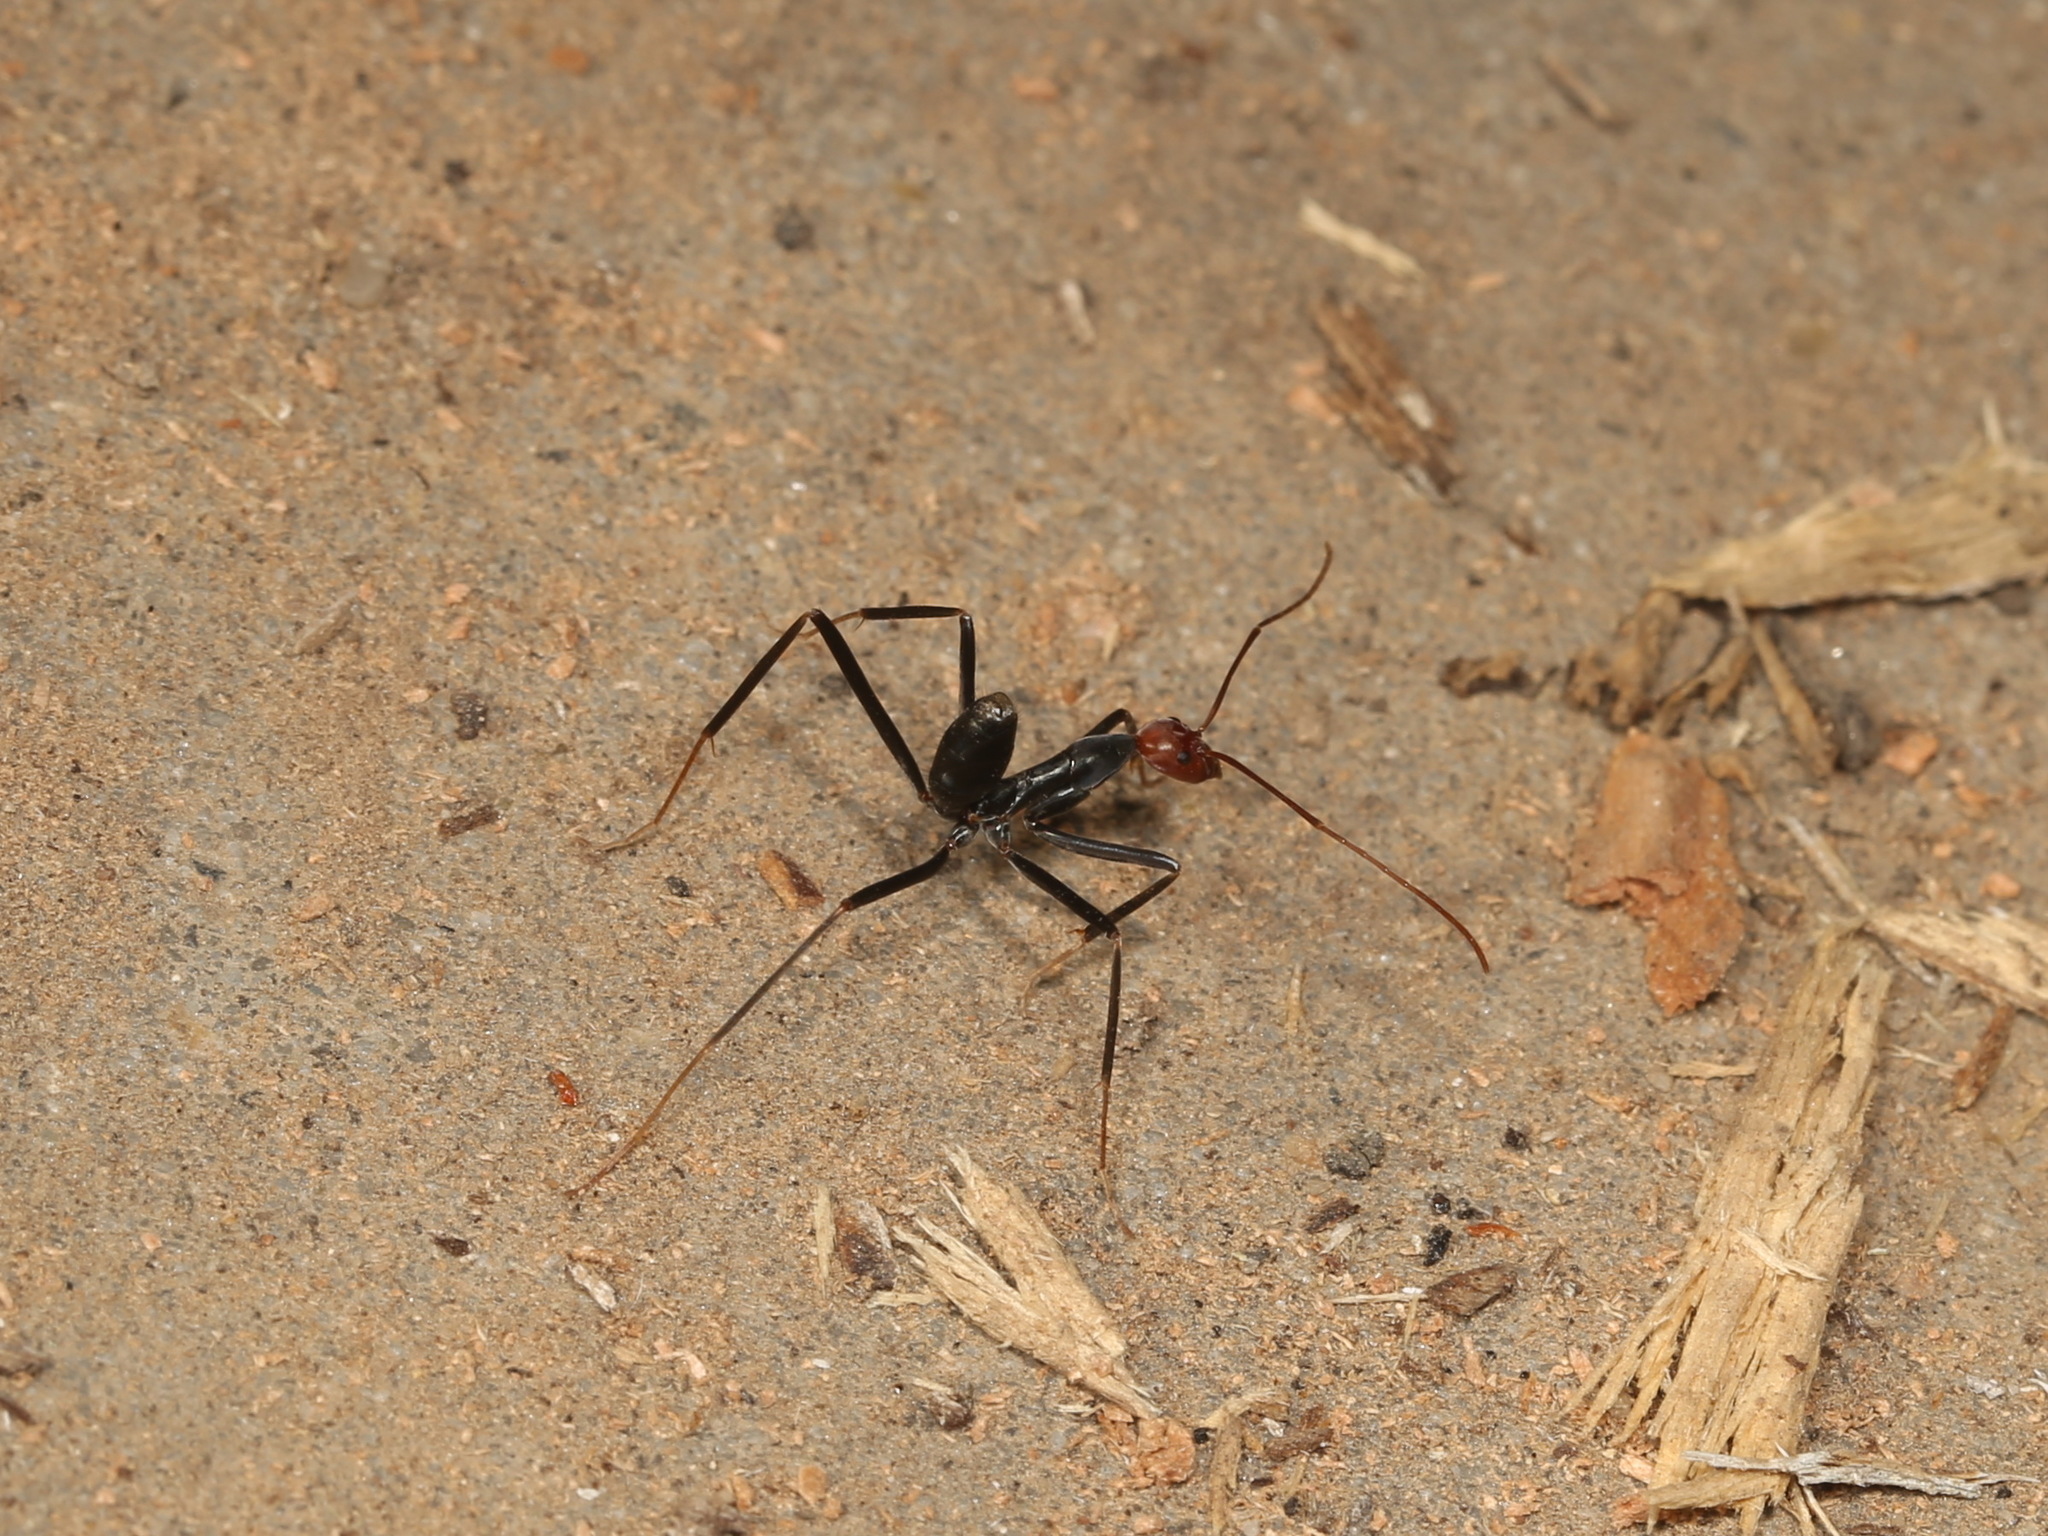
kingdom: Animalia
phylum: Arthropoda
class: Insecta
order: Hymenoptera
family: Formicidae
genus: Leptomyrmex
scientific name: Leptomyrmex erythrocephalus
